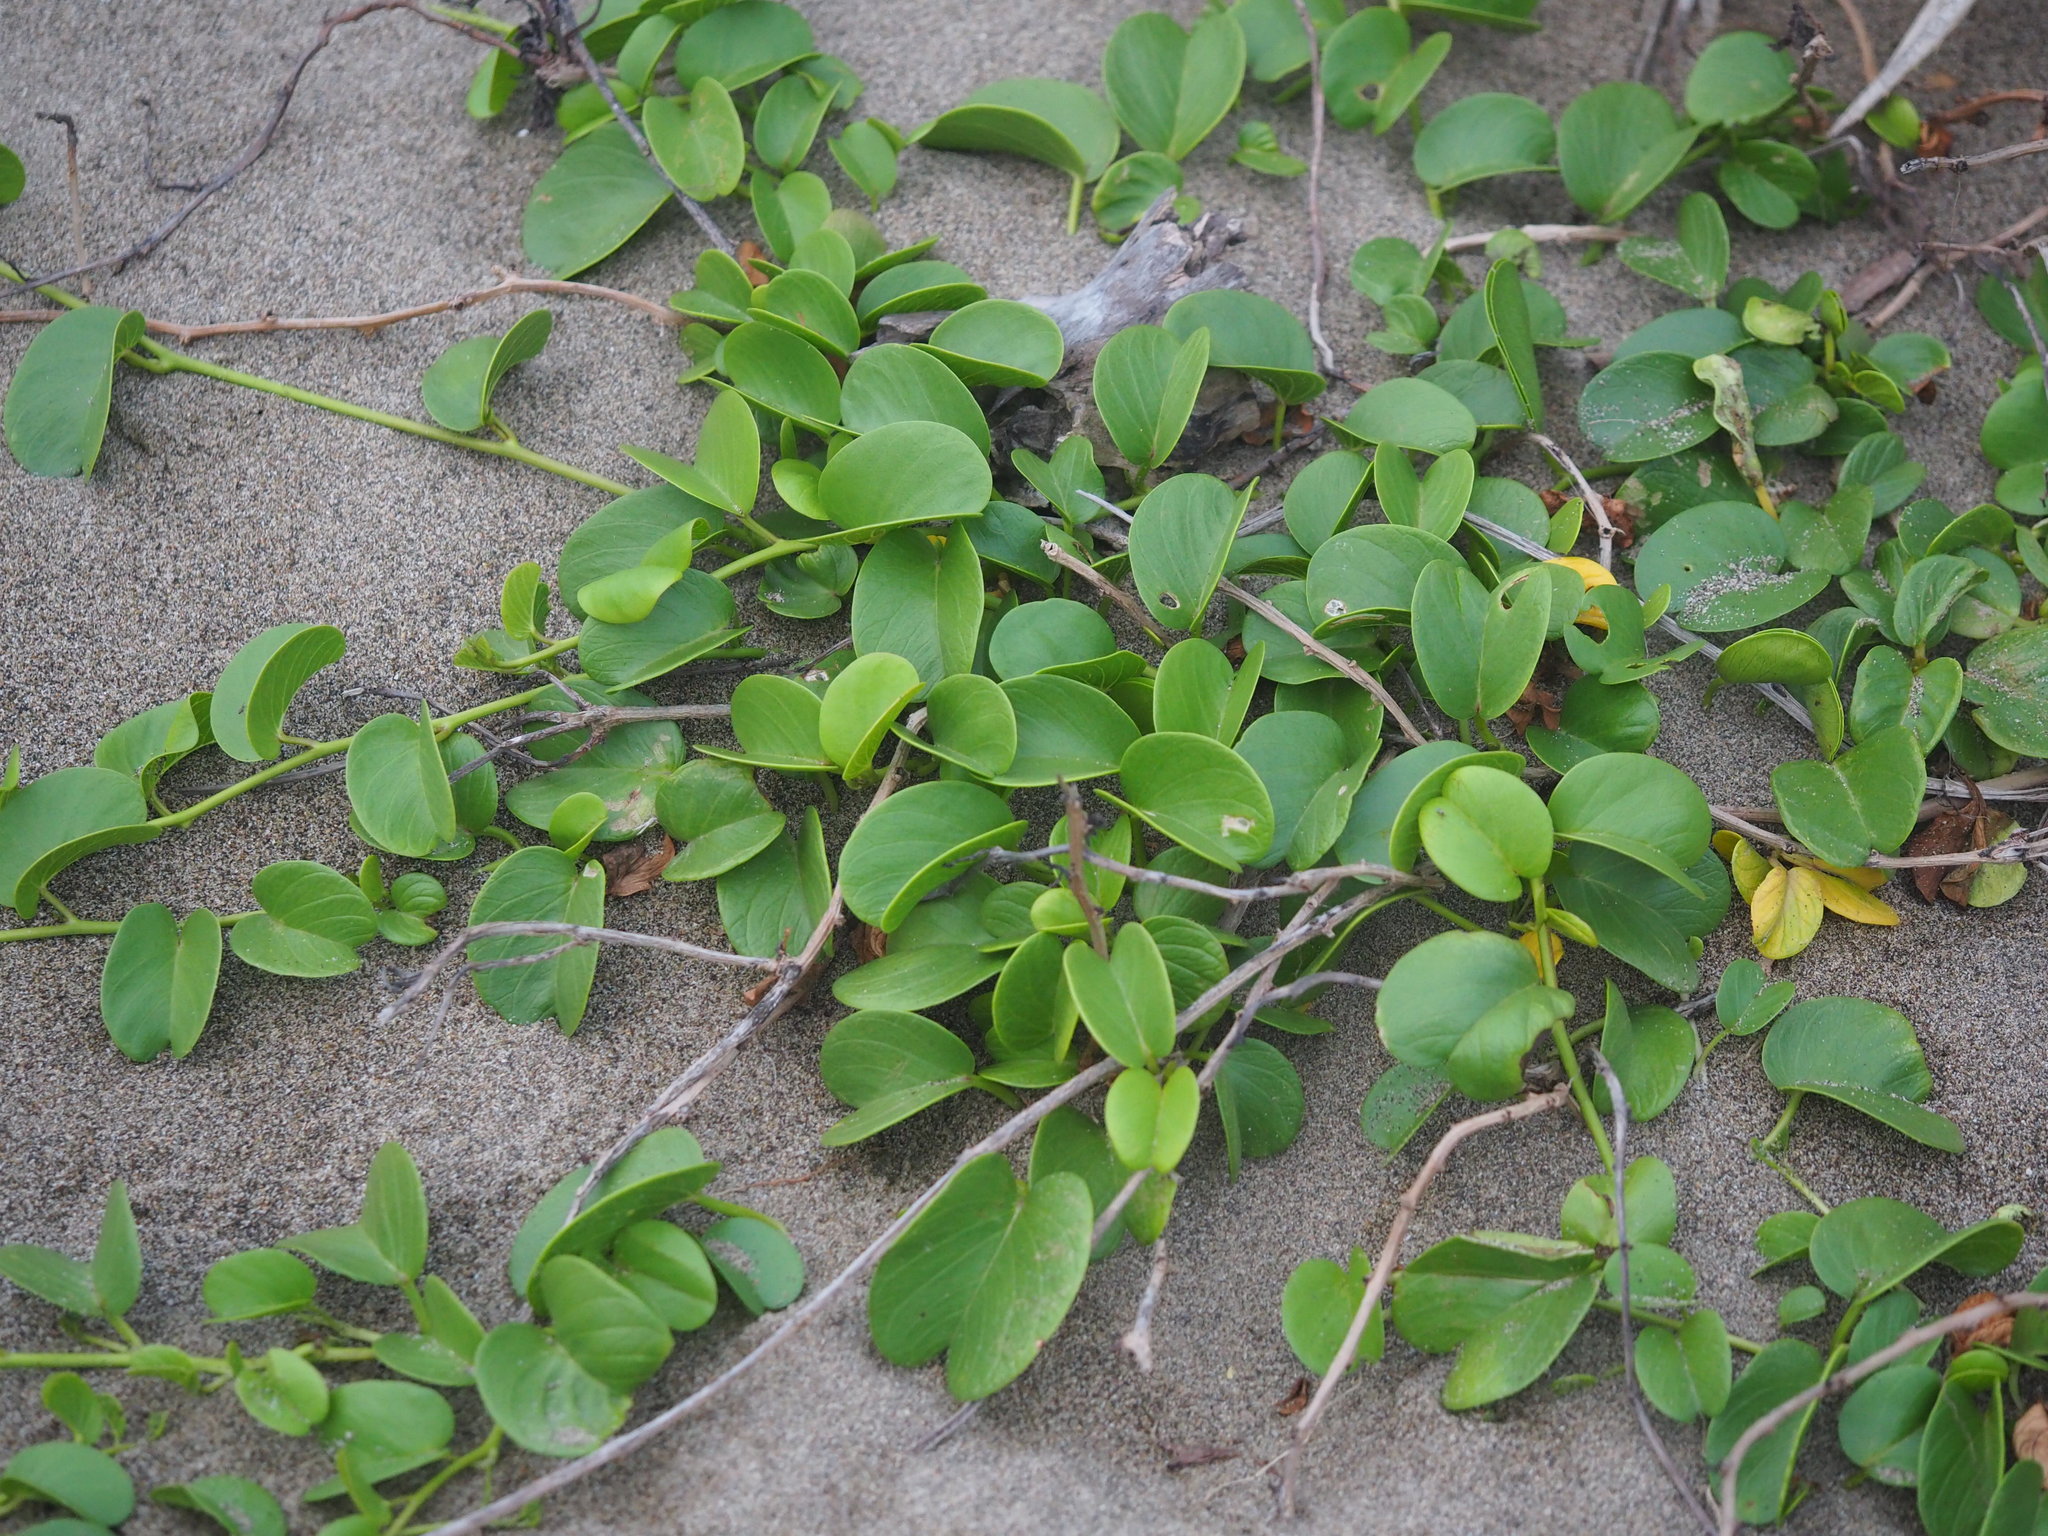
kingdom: Plantae
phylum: Tracheophyta
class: Magnoliopsida
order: Solanales
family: Convolvulaceae
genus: Ipomoea
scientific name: Ipomoea pes-caprae
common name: Beach morning glory
